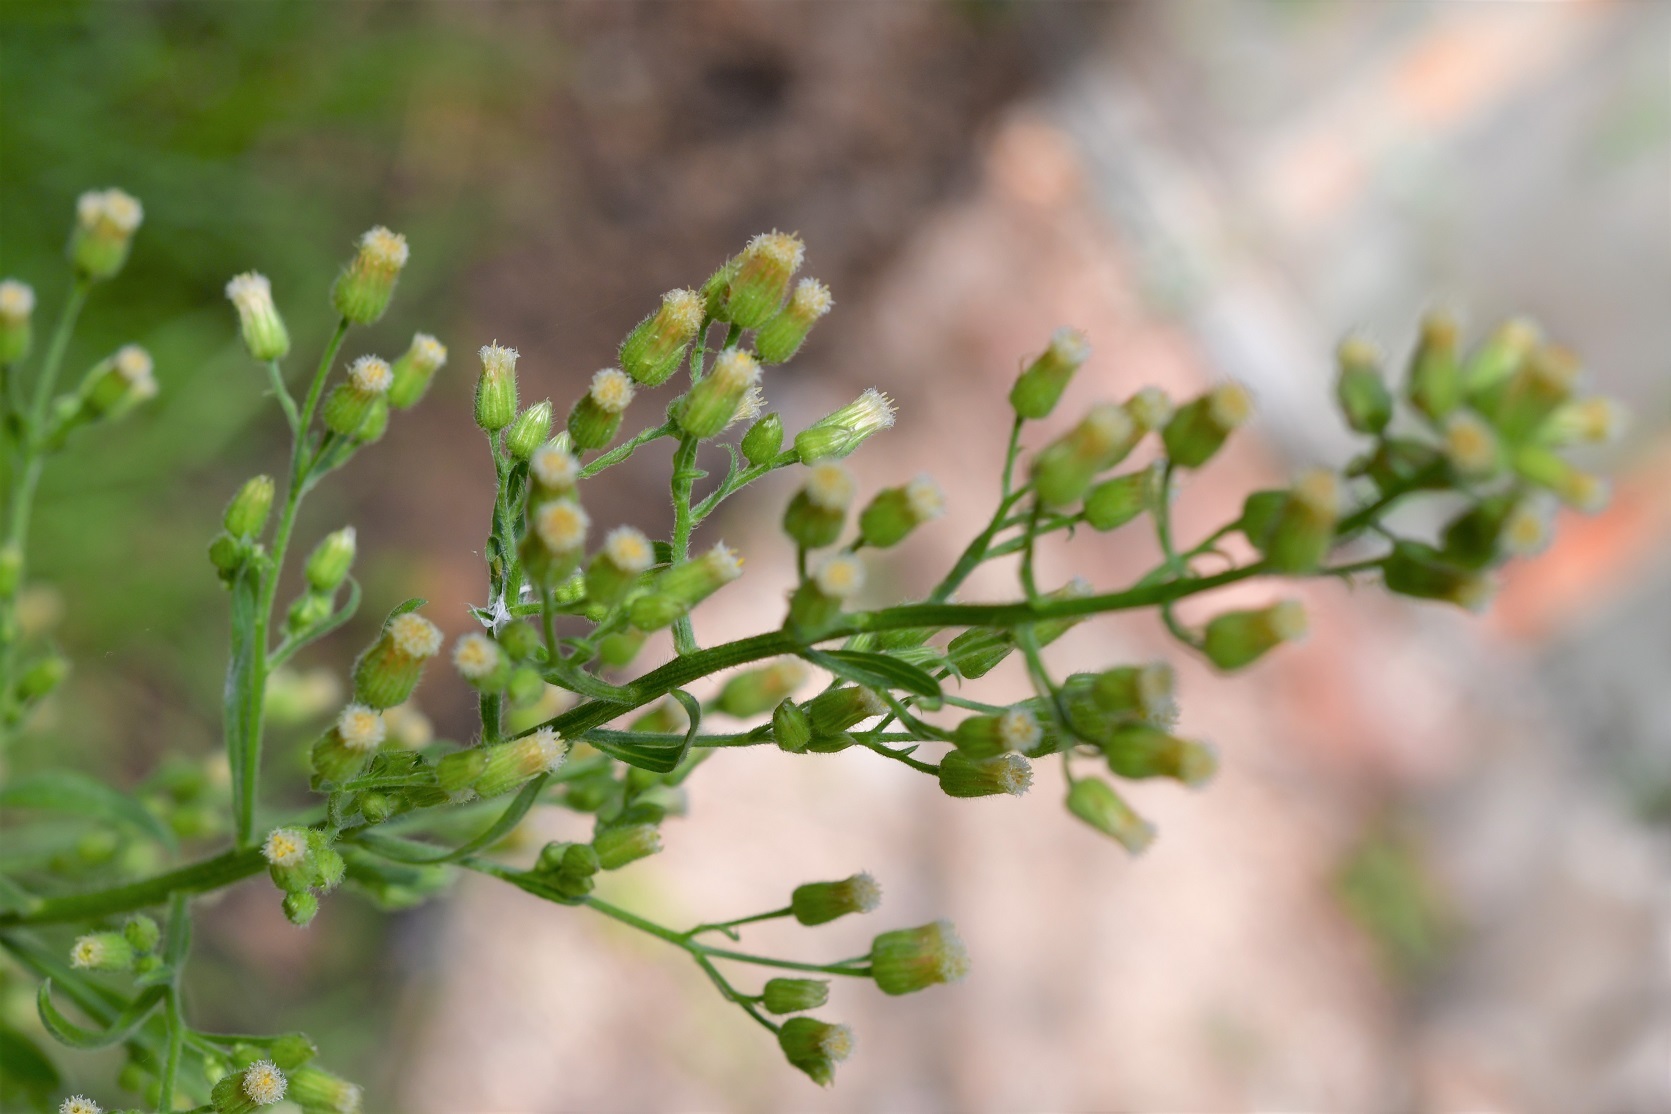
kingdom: Plantae
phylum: Tracheophyta
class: Magnoliopsida
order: Asterales
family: Asteraceae
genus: Erigeron
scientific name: Erigeron canadensis
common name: Canadian fleabane
